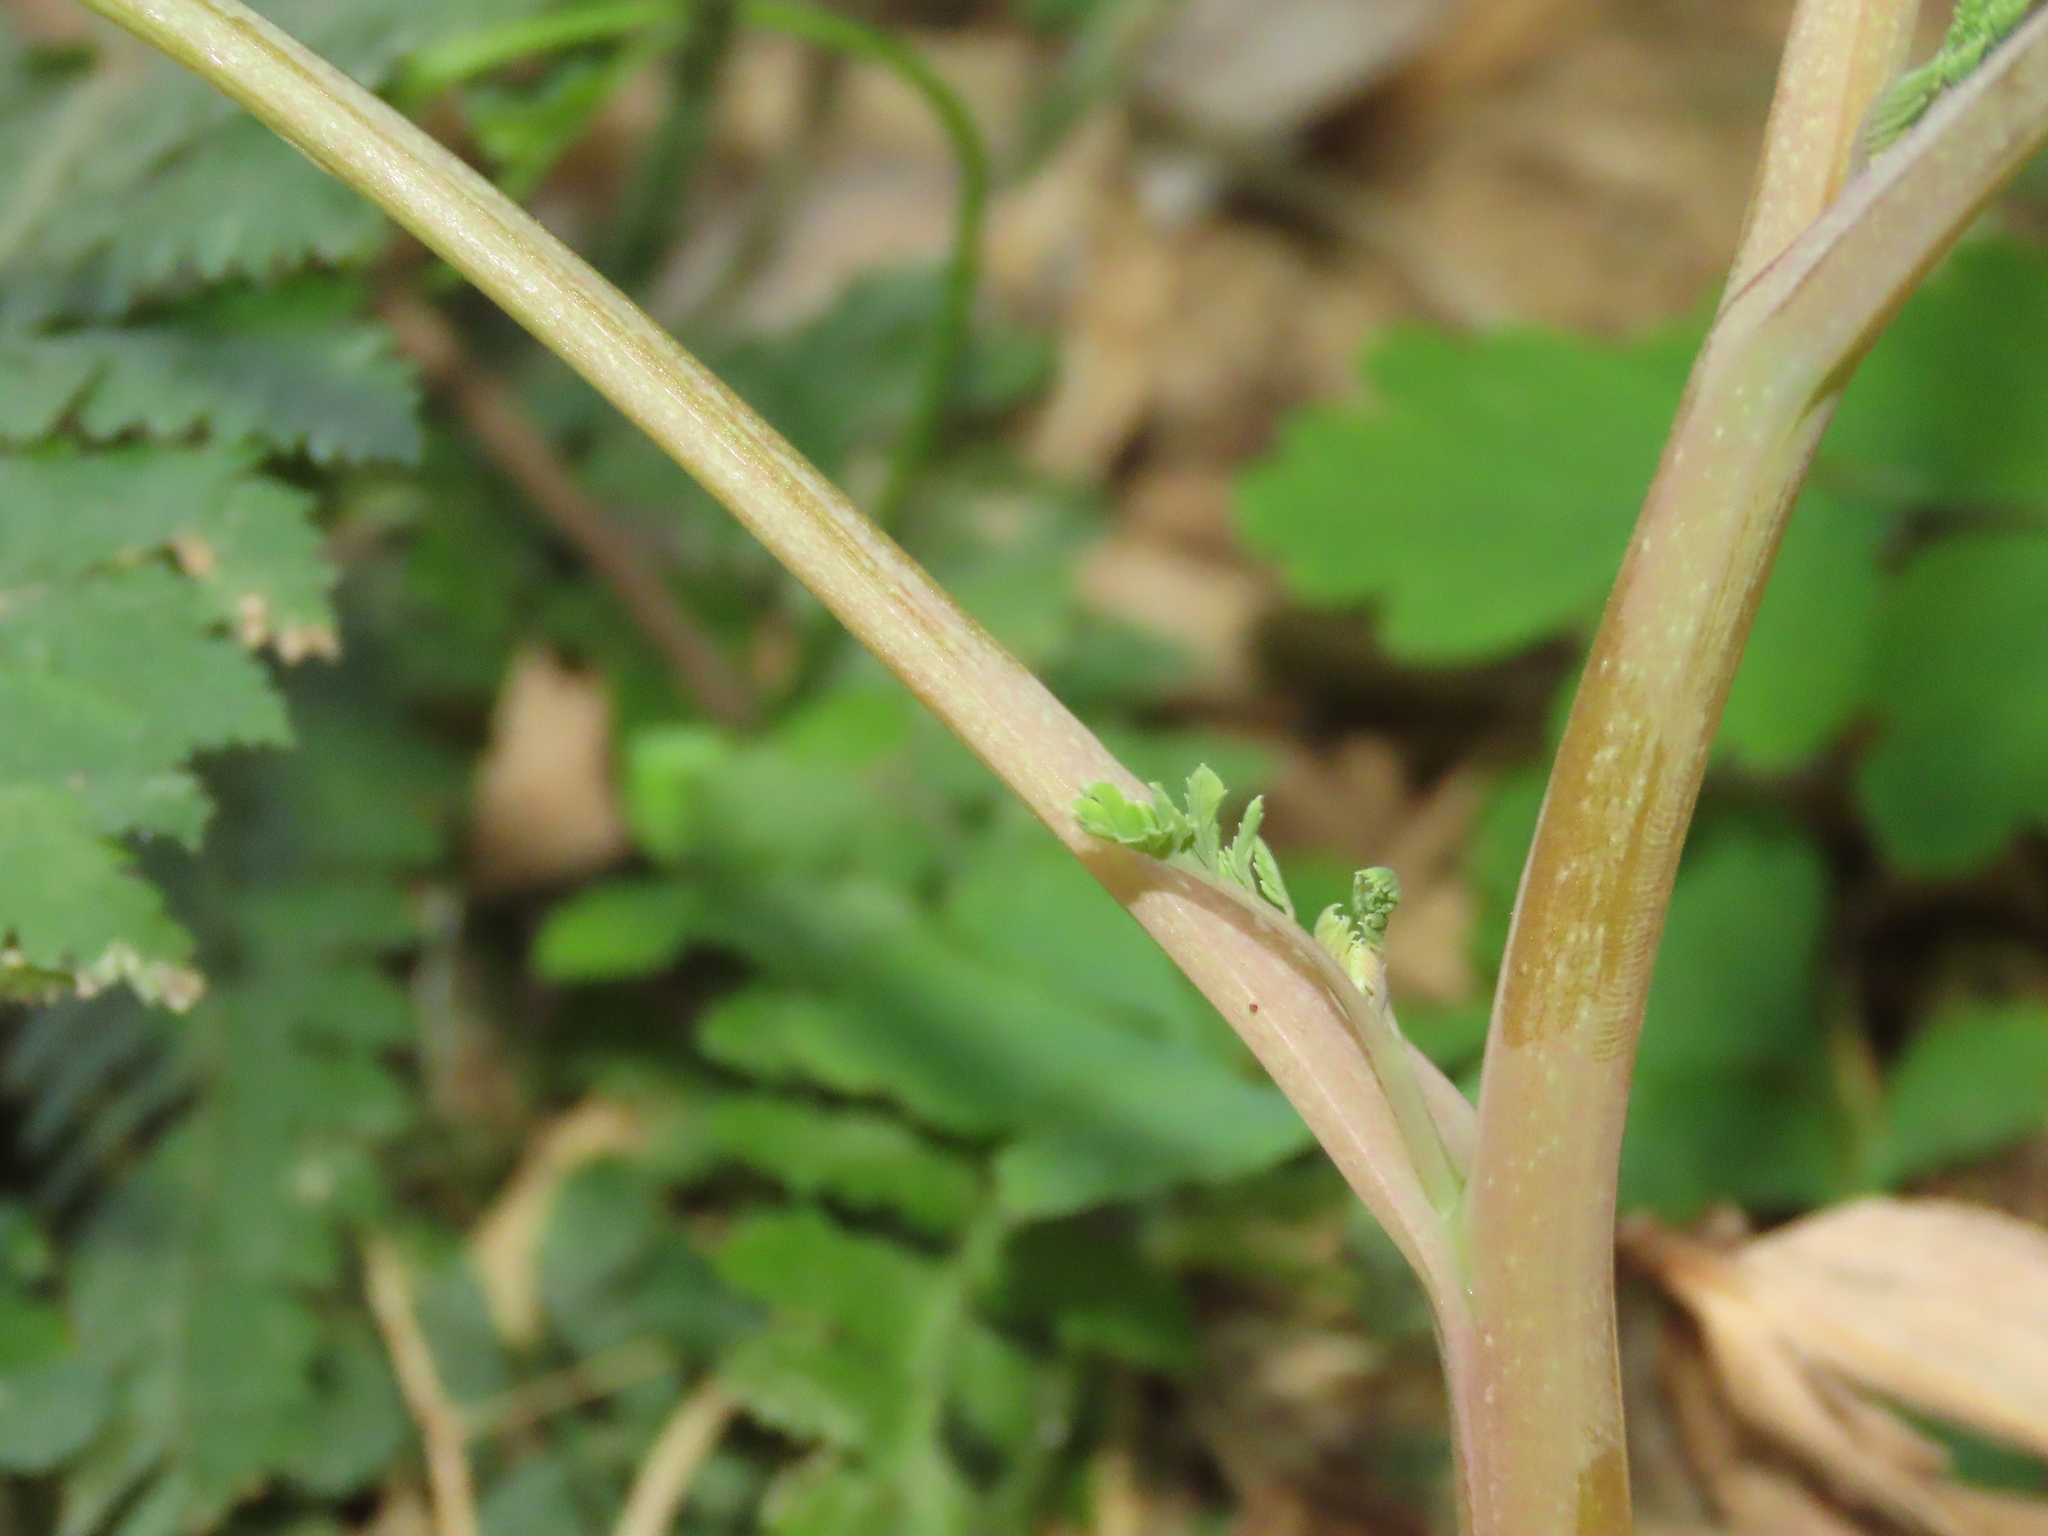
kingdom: Plantae
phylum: Tracheophyta
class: Magnoliopsida
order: Ranunculales
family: Papaveraceae
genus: Corydalis
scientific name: Corydalis pallida
